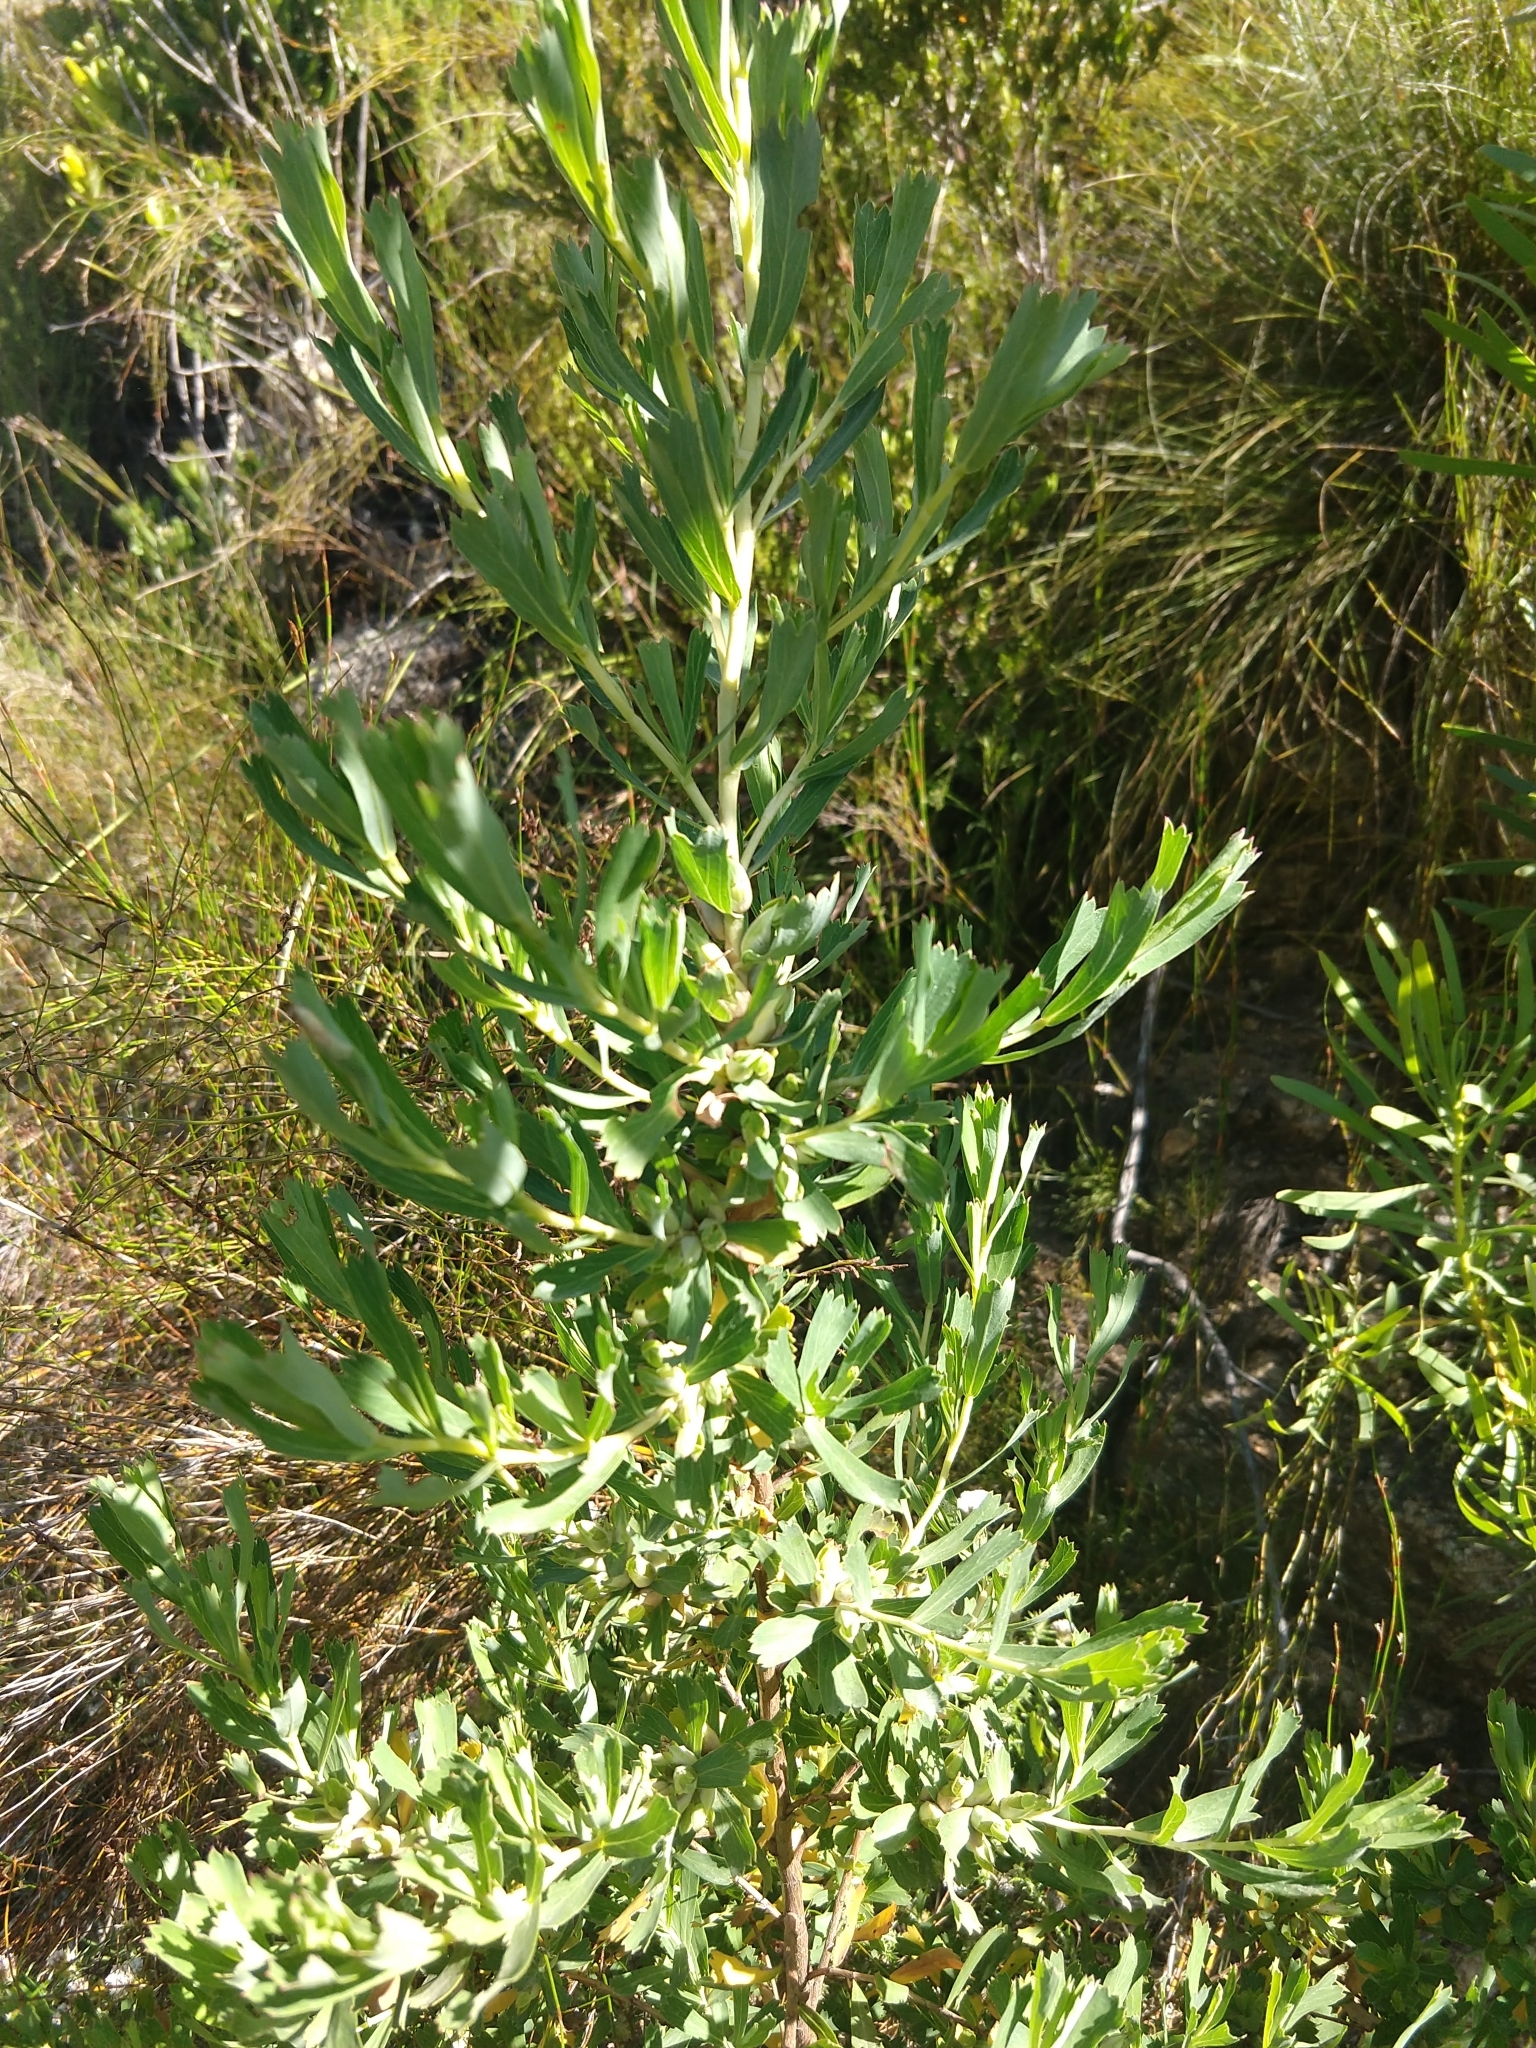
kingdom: Plantae
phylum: Tracheophyta
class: Magnoliopsida
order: Rosales
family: Rosaceae
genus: Cliffortia
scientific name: Cliffortia cuneata
